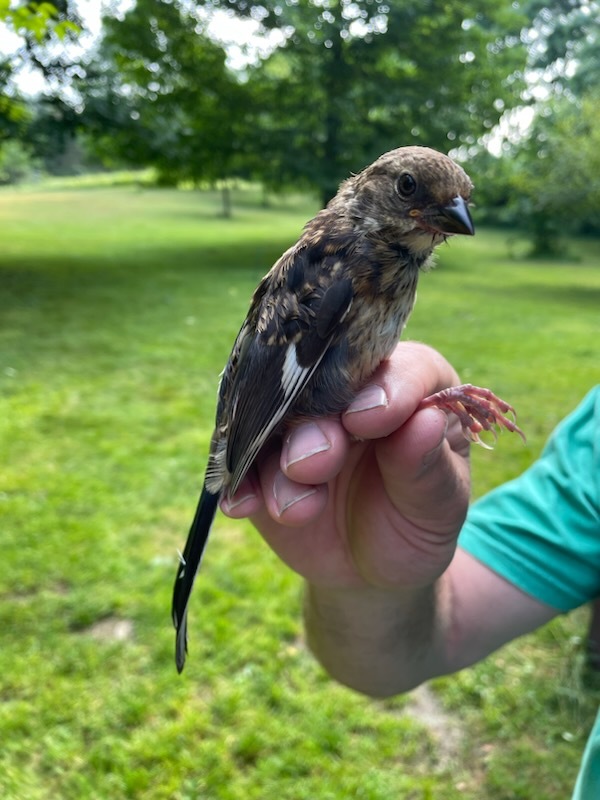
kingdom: Animalia
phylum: Chordata
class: Aves
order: Passeriformes
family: Passerellidae
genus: Pipilo
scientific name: Pipilo erythrophthalmus
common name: Eastern towhee
